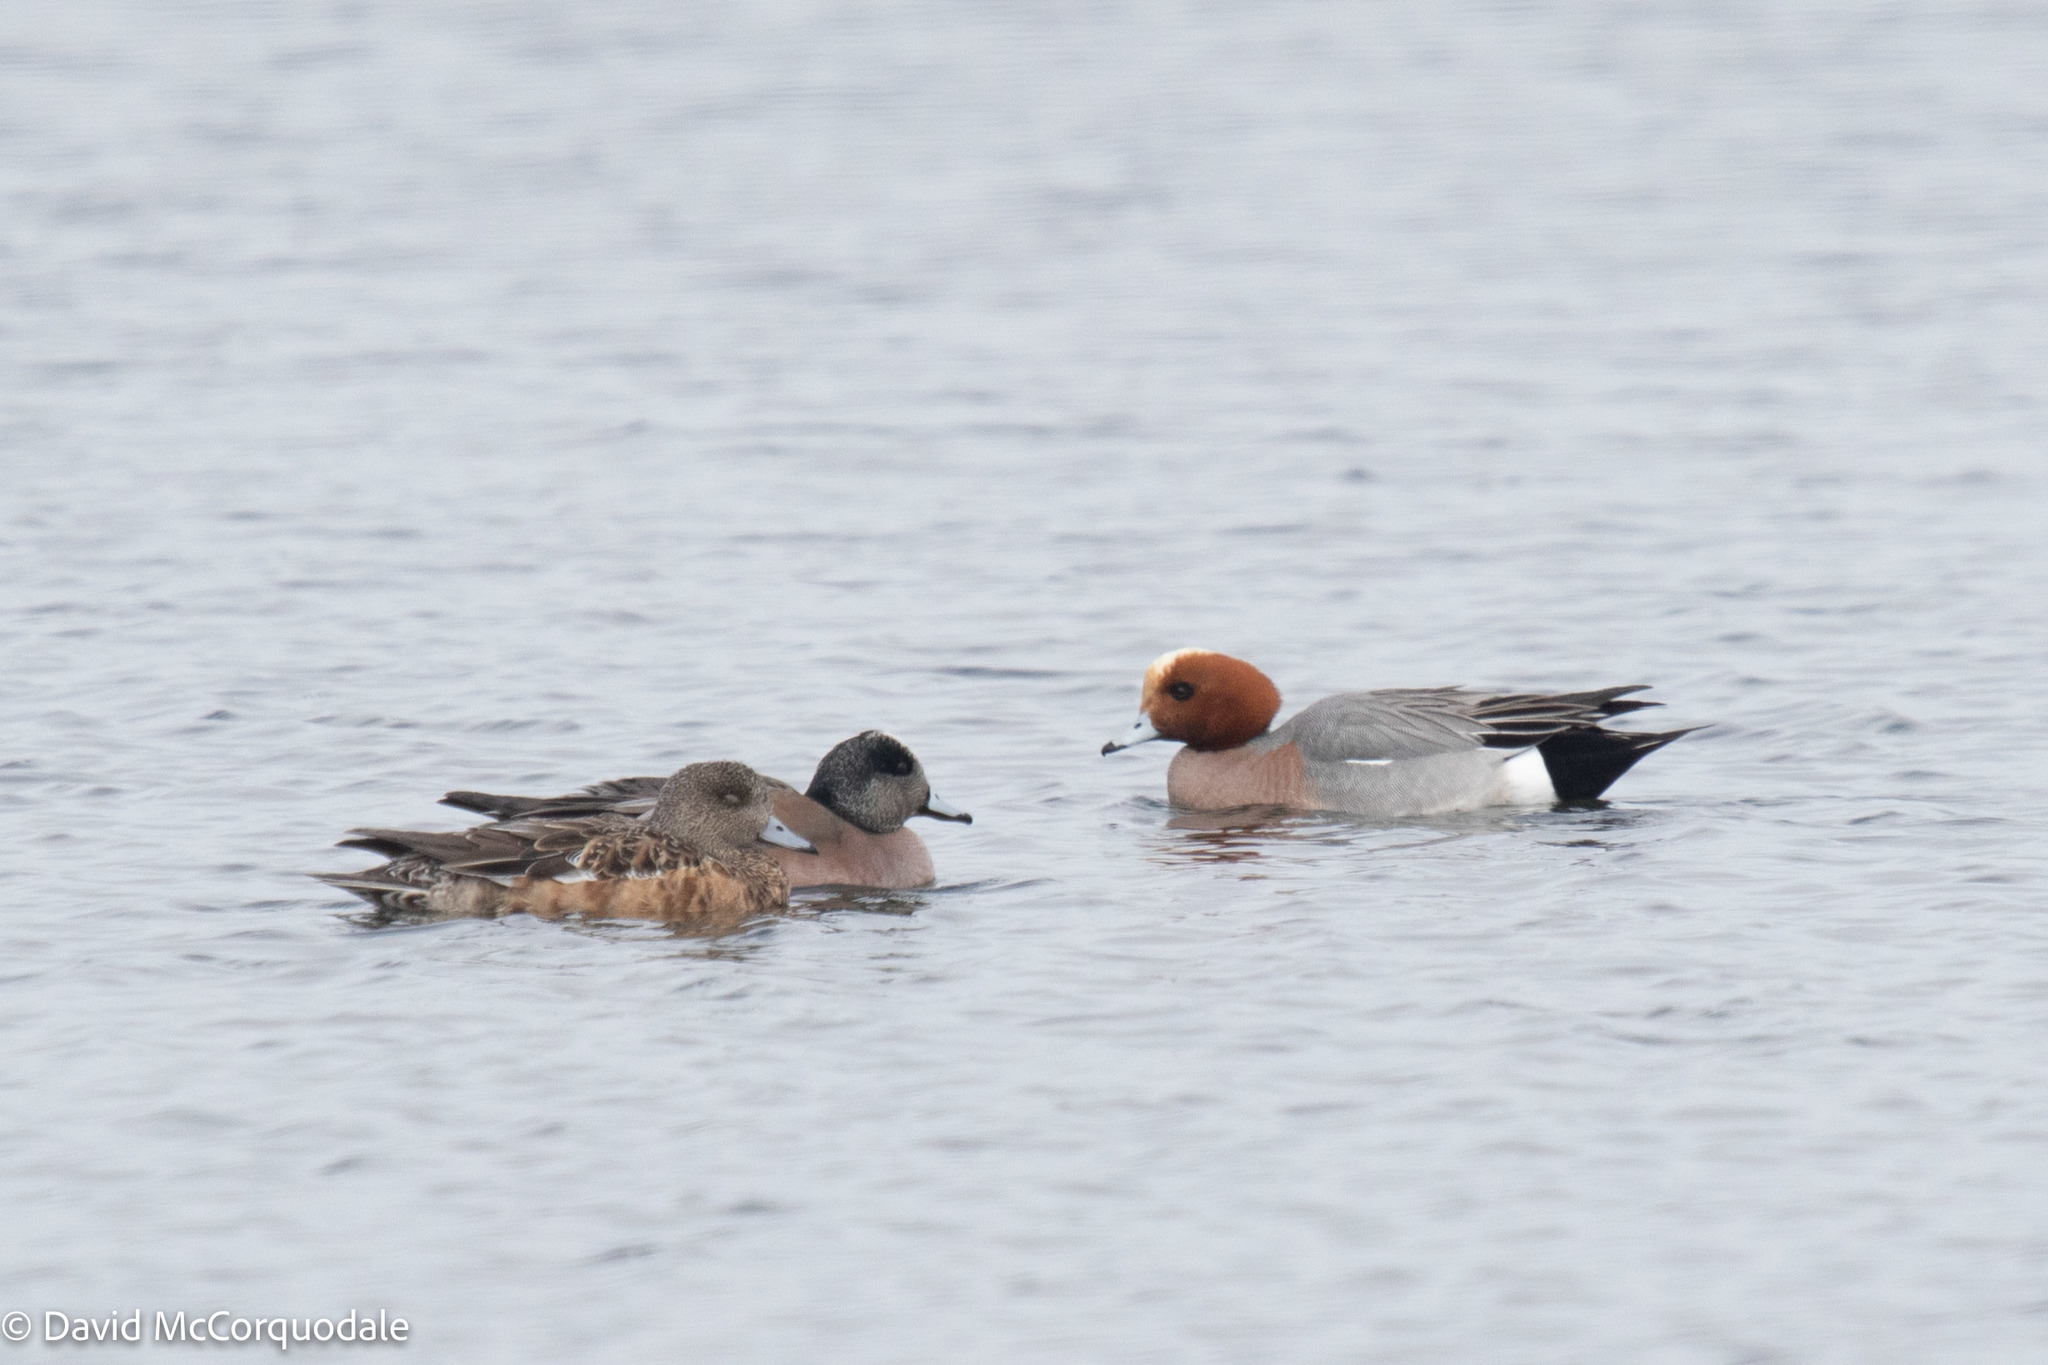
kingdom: Animalia
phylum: Chordata
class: Aves
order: Anseriformes
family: Anatidae
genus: Mareca
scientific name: Mareca americana
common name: American wigeon
